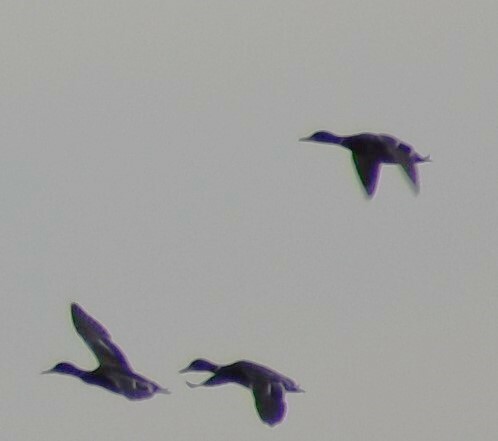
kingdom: Animalia
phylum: Chordata
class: Aves
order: Anseriformes
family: Anatidae
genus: Anas
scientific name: Anas platyrhynchos
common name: Mallard
